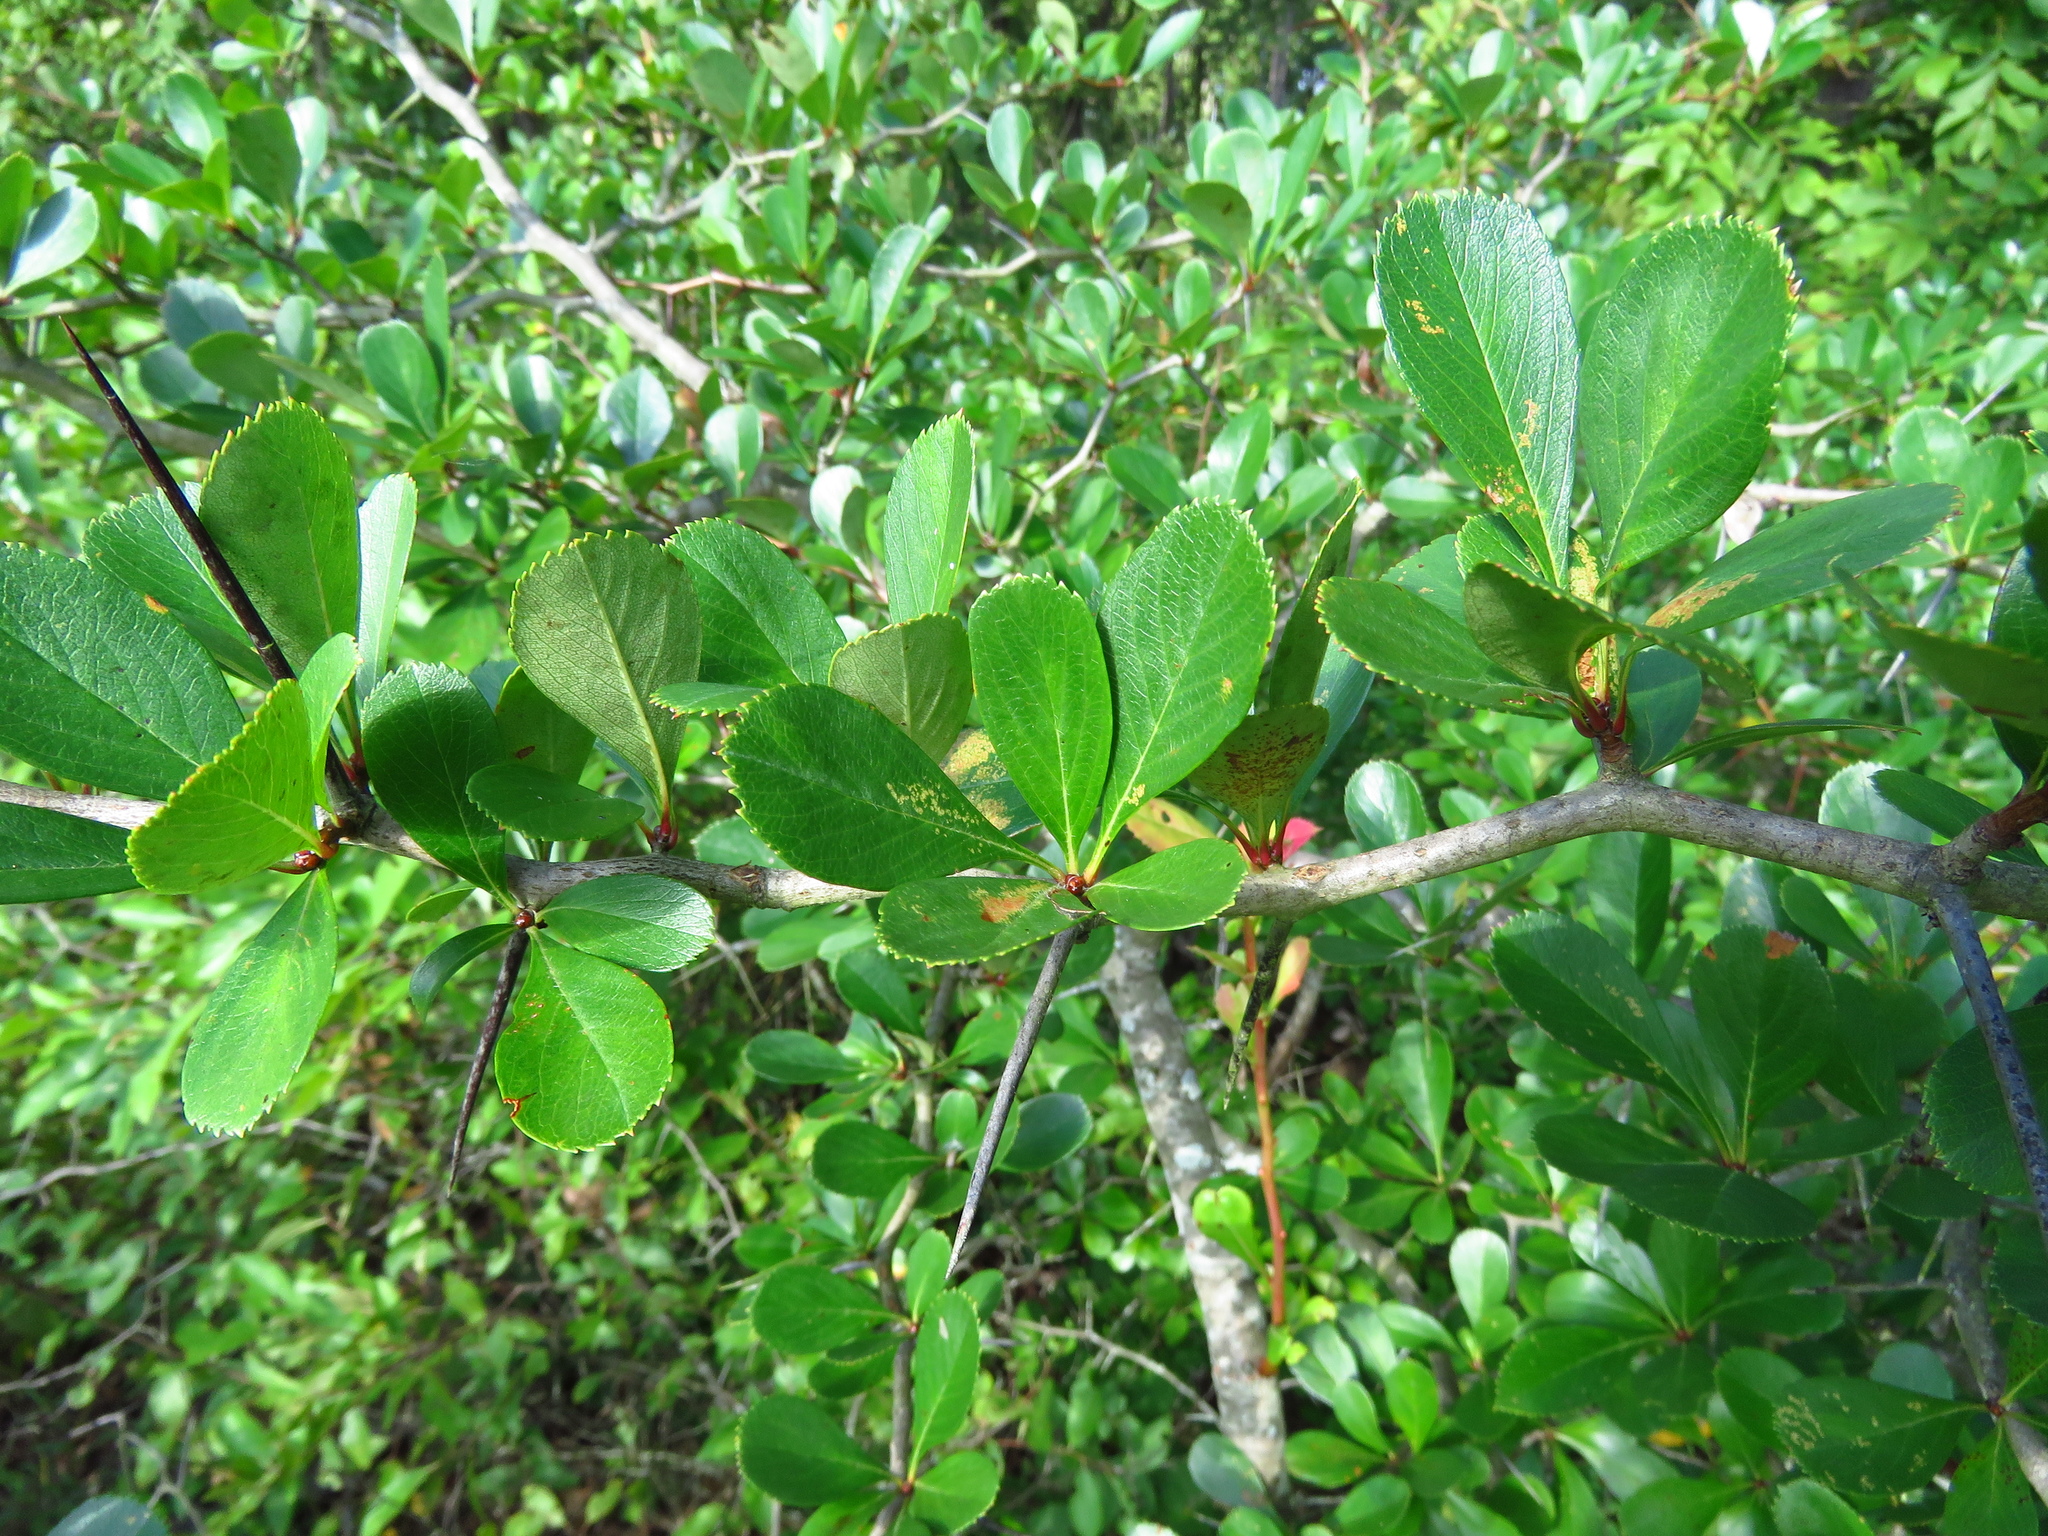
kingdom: Plantae
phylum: Tracheophyta
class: Magnoliopsida
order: Rosales
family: Rosaceae
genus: Crataegus
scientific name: Crataegus crus-galli
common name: Cockspurthorn
